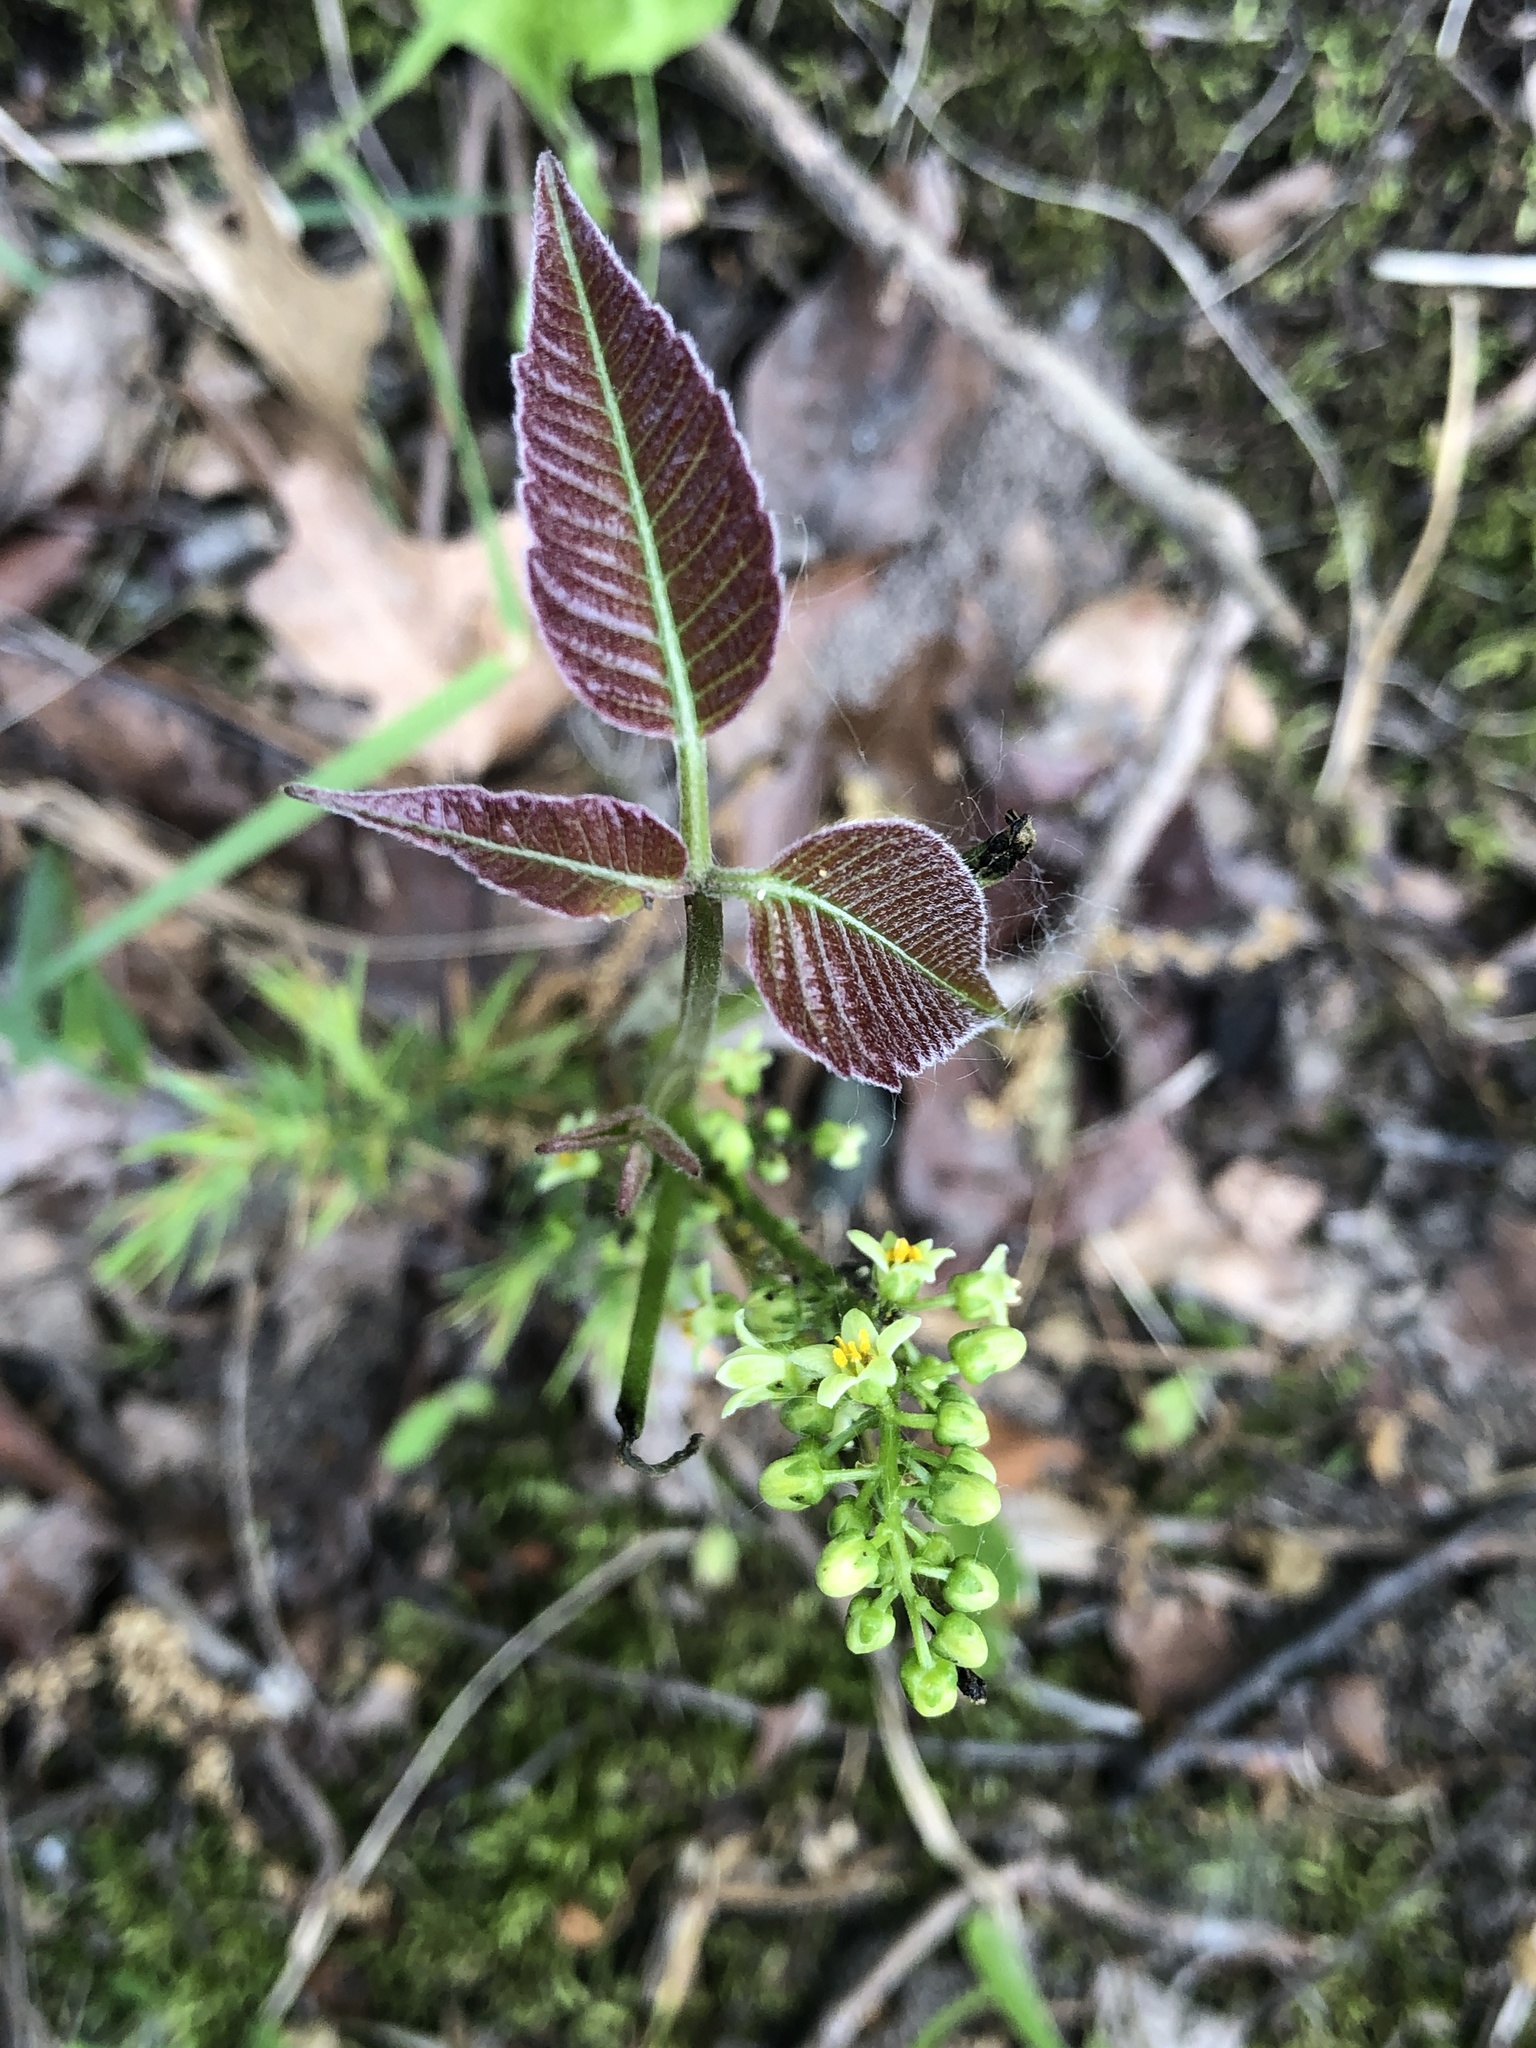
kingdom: Plantae
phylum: Tracheophyta
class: Magnoliopsida
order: Sapindales
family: Anacardiaceae
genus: Toxicodendron
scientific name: Toxicodendron rydbergii
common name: Rydberg's poison-ivy
